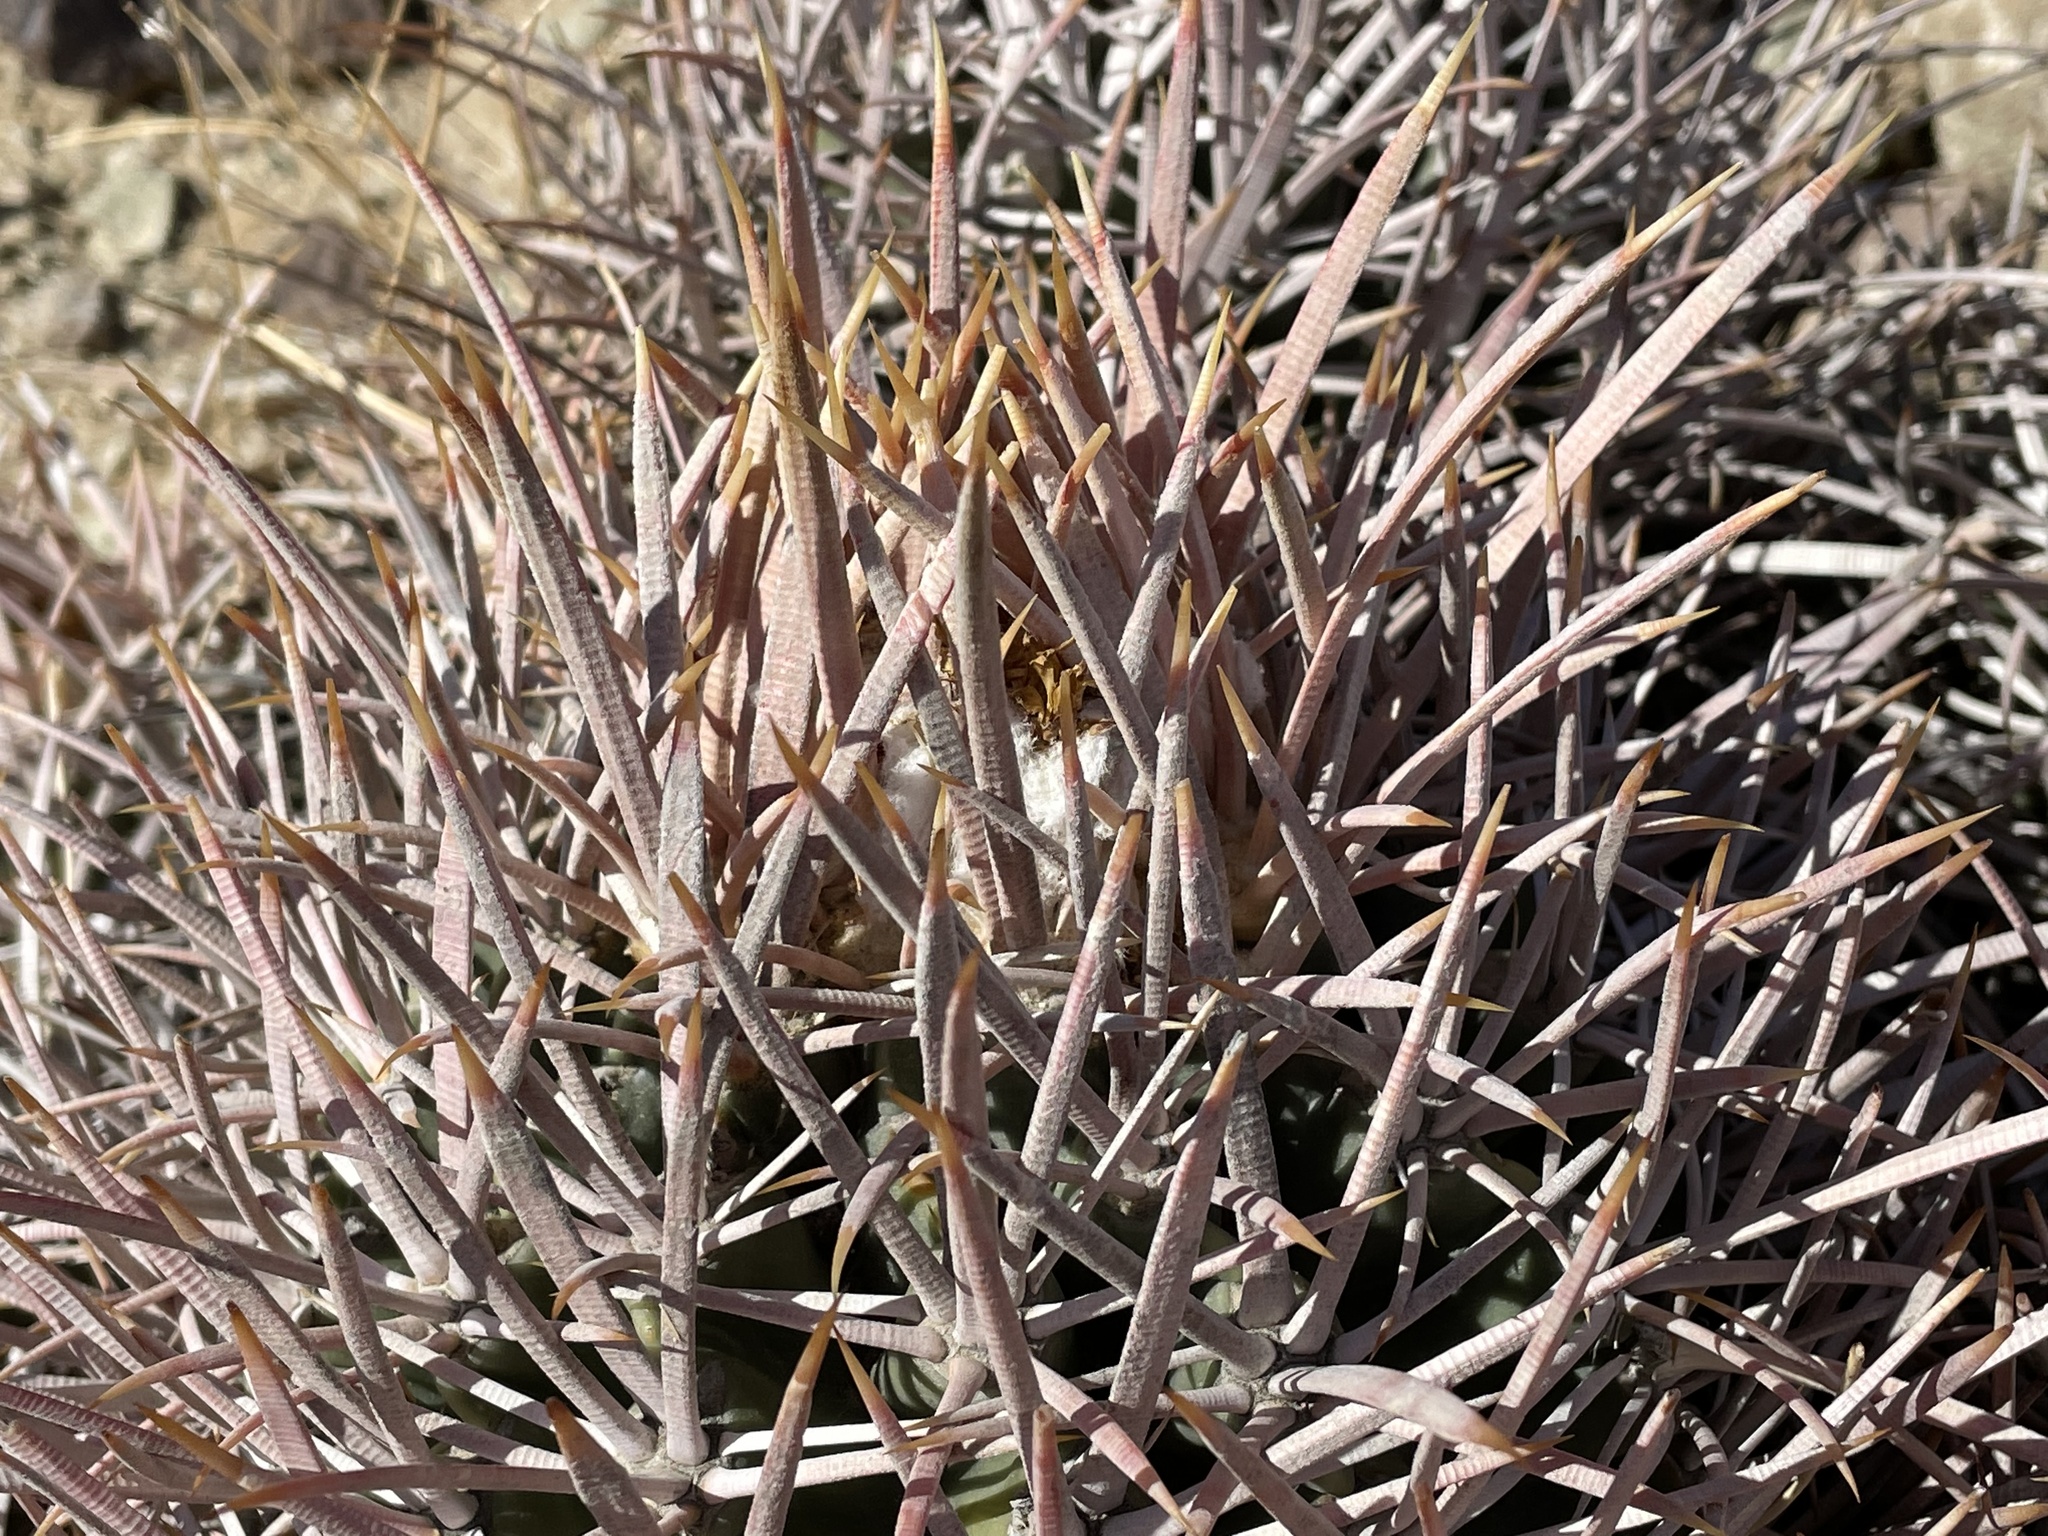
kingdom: Plantae
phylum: Tracheophyta
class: Magnoliopsida
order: Caryophyllales
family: Cactaceae
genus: Echinocactus
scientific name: Echinocactus polycephalus
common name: Cottontop cactus
